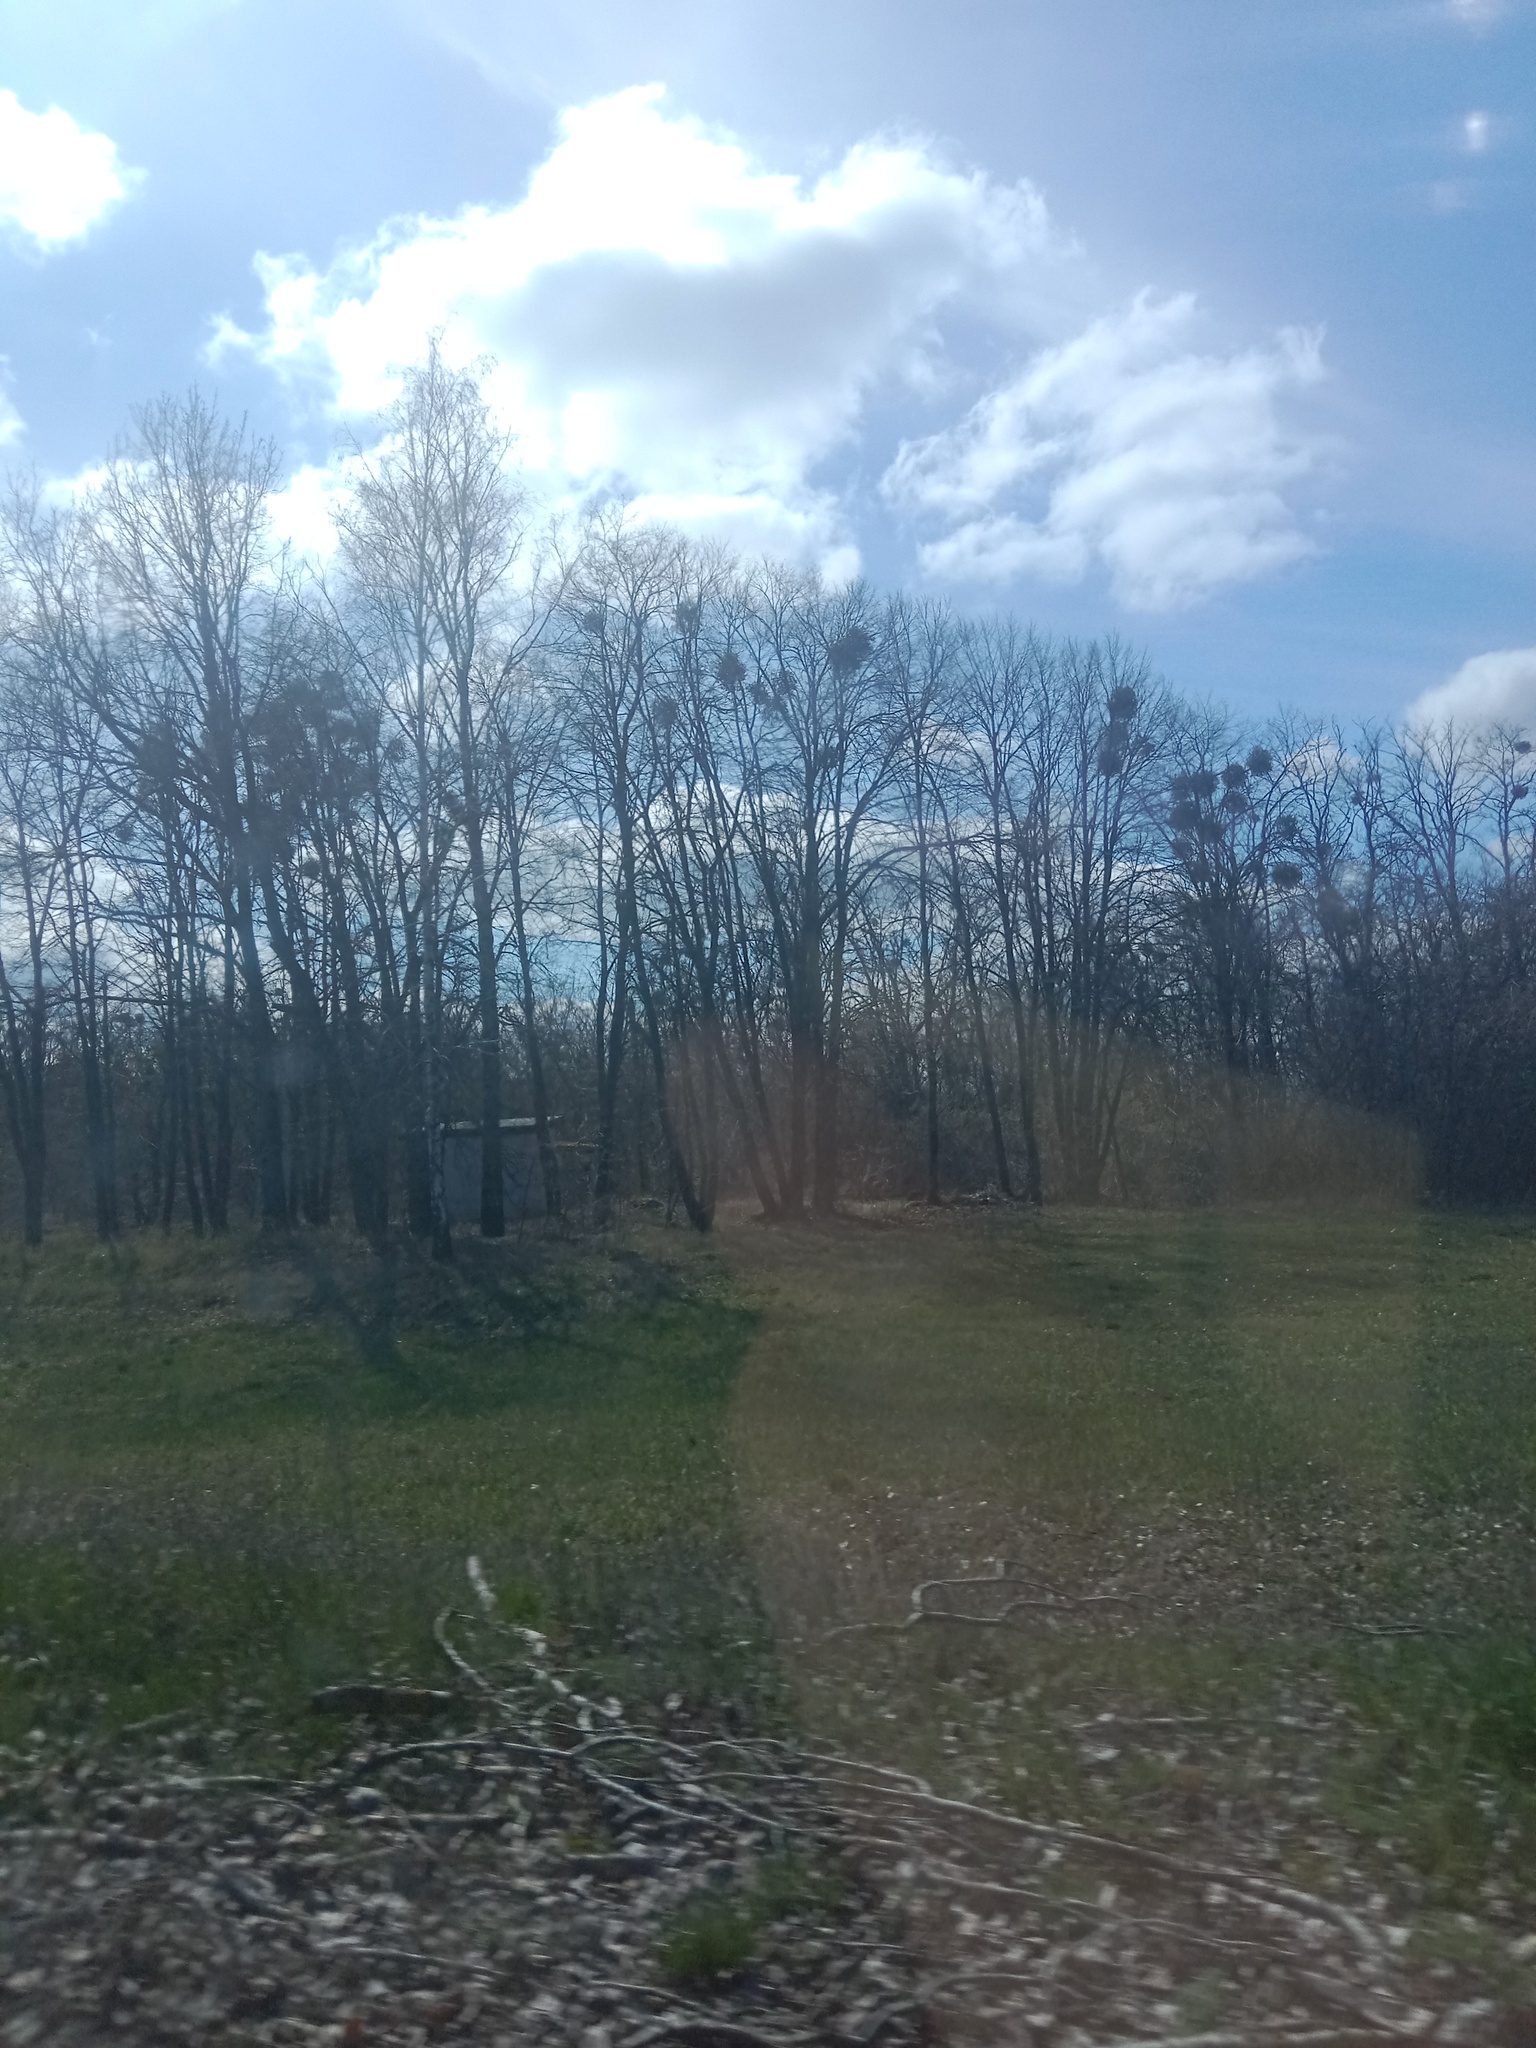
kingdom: Plantae
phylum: Tracheophyta
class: Magnoliopsida
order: Santalales
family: Viscaceae
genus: Viscum
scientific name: Viscum album
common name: Mistletoe
